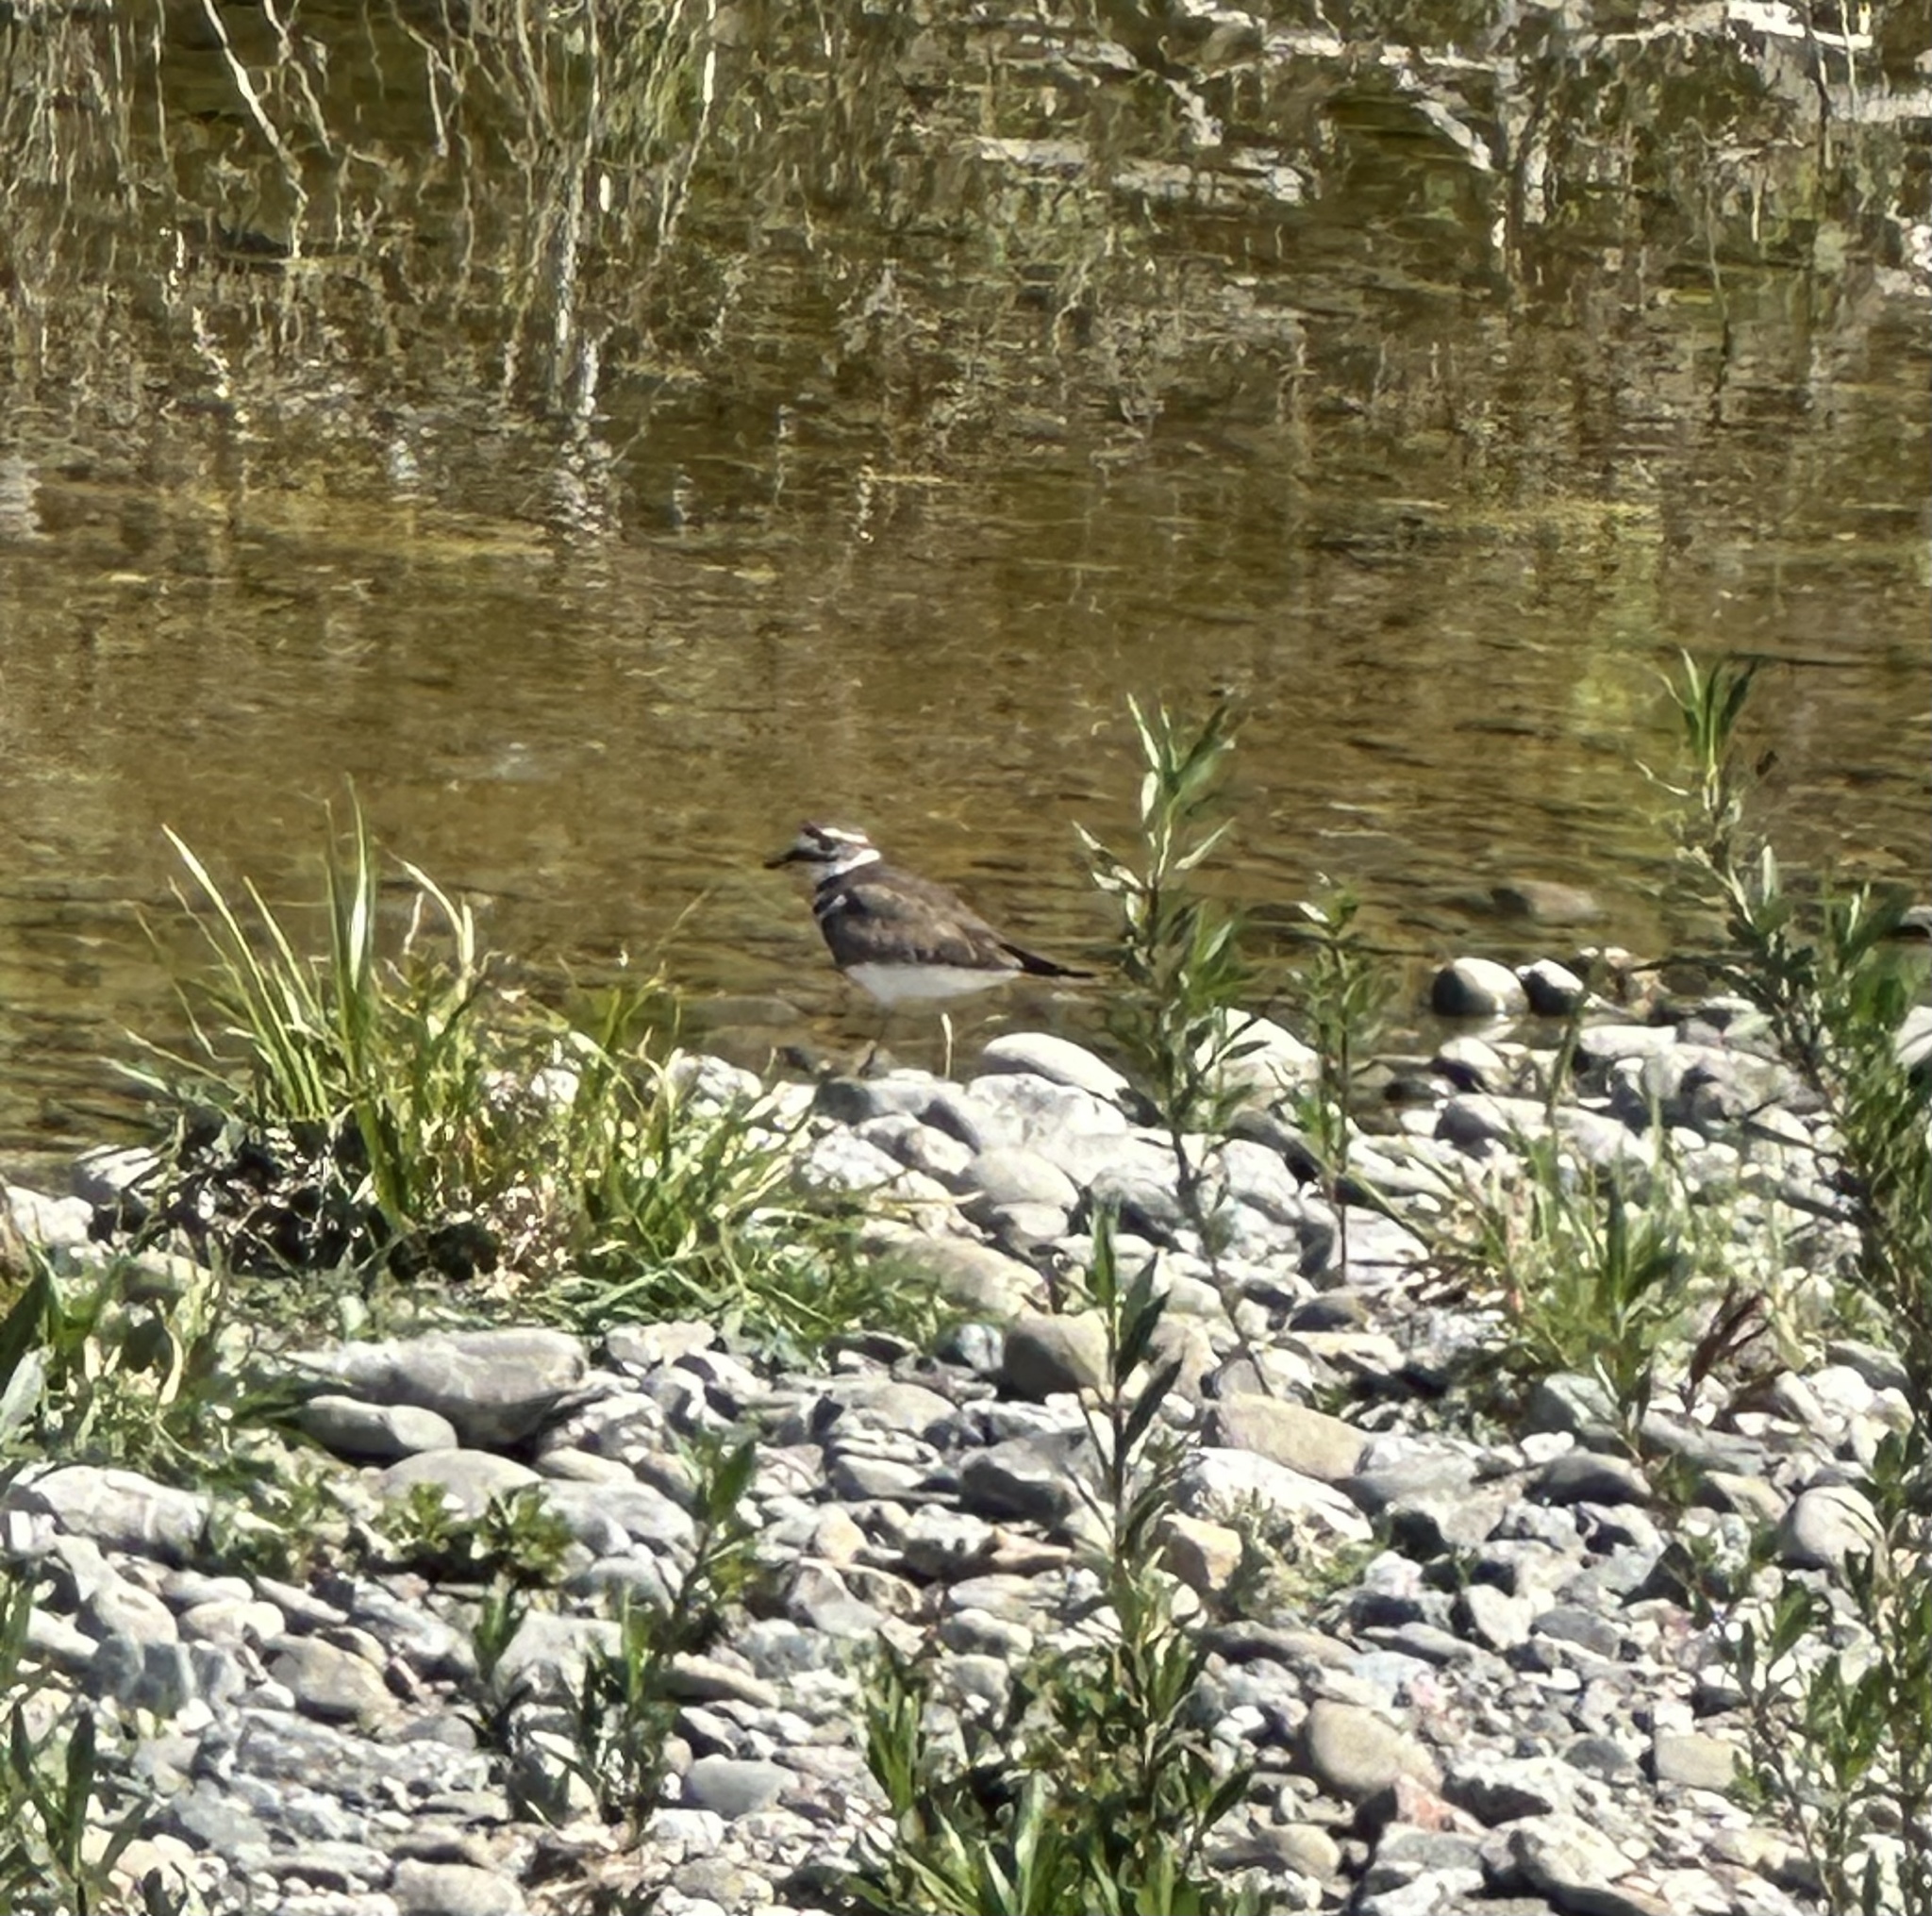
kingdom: Animalia
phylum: Chordata
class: Aves
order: Charadriiformes
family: Charadriidae
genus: Charadrius
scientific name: Charadrius vociferus
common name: Killdeer
